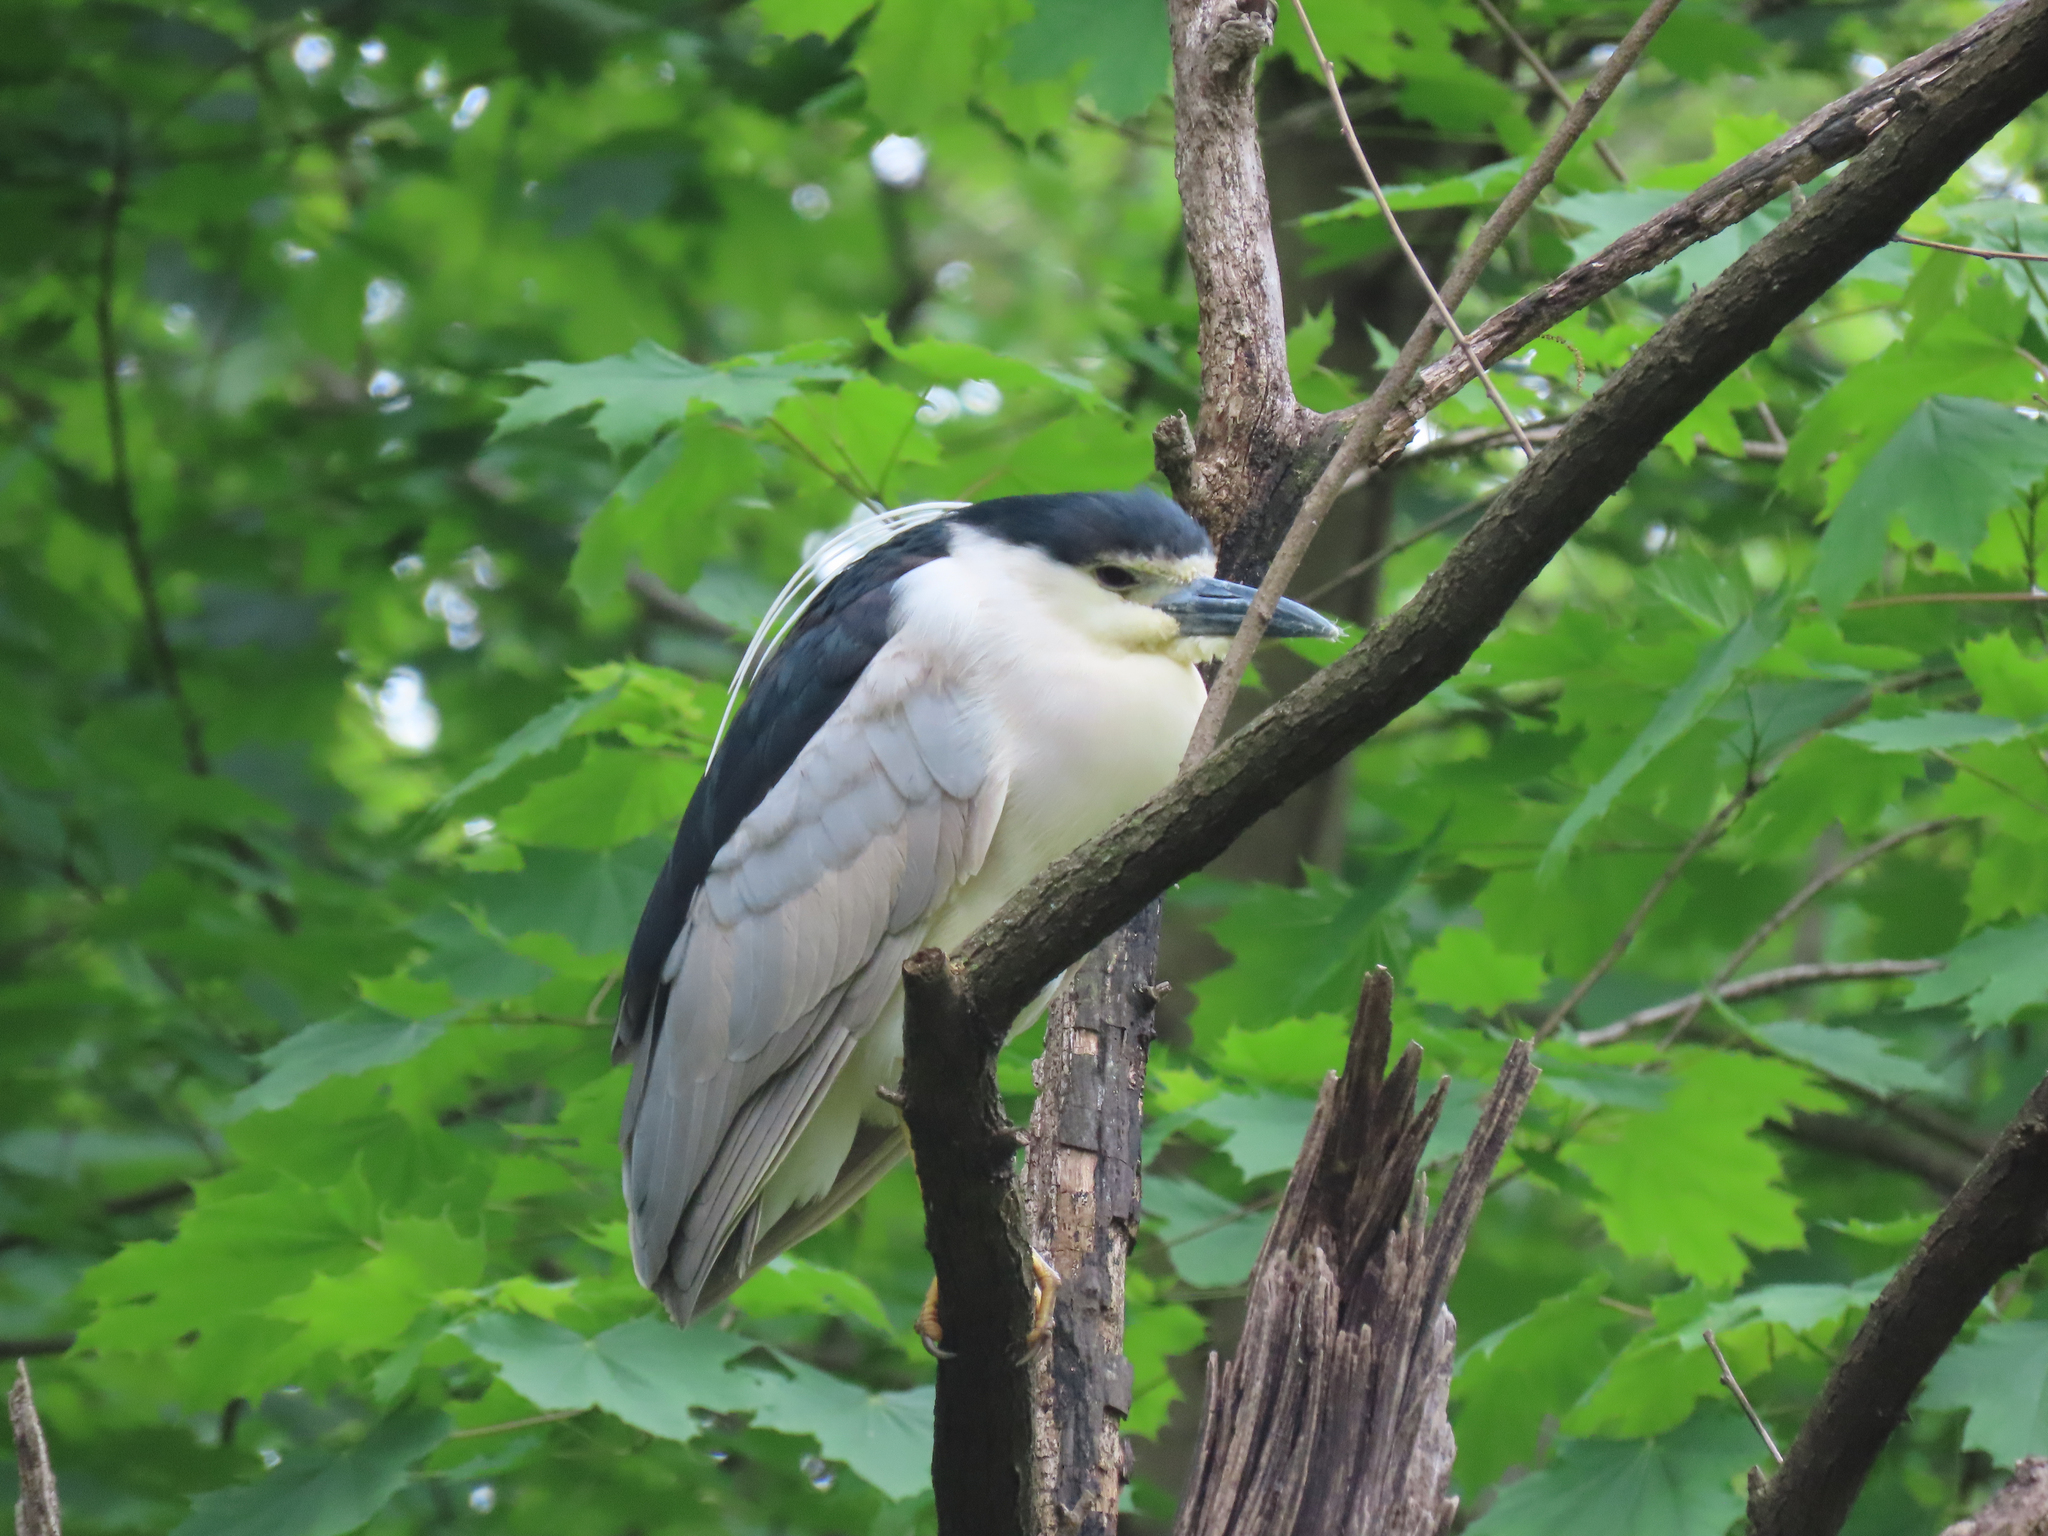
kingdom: Animalia
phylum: Chordata
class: Aves
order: Pelecaniformes
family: Ardeidae
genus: Nycticorax
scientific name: Nycticorax nycticorax
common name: Black-crowned night heron
